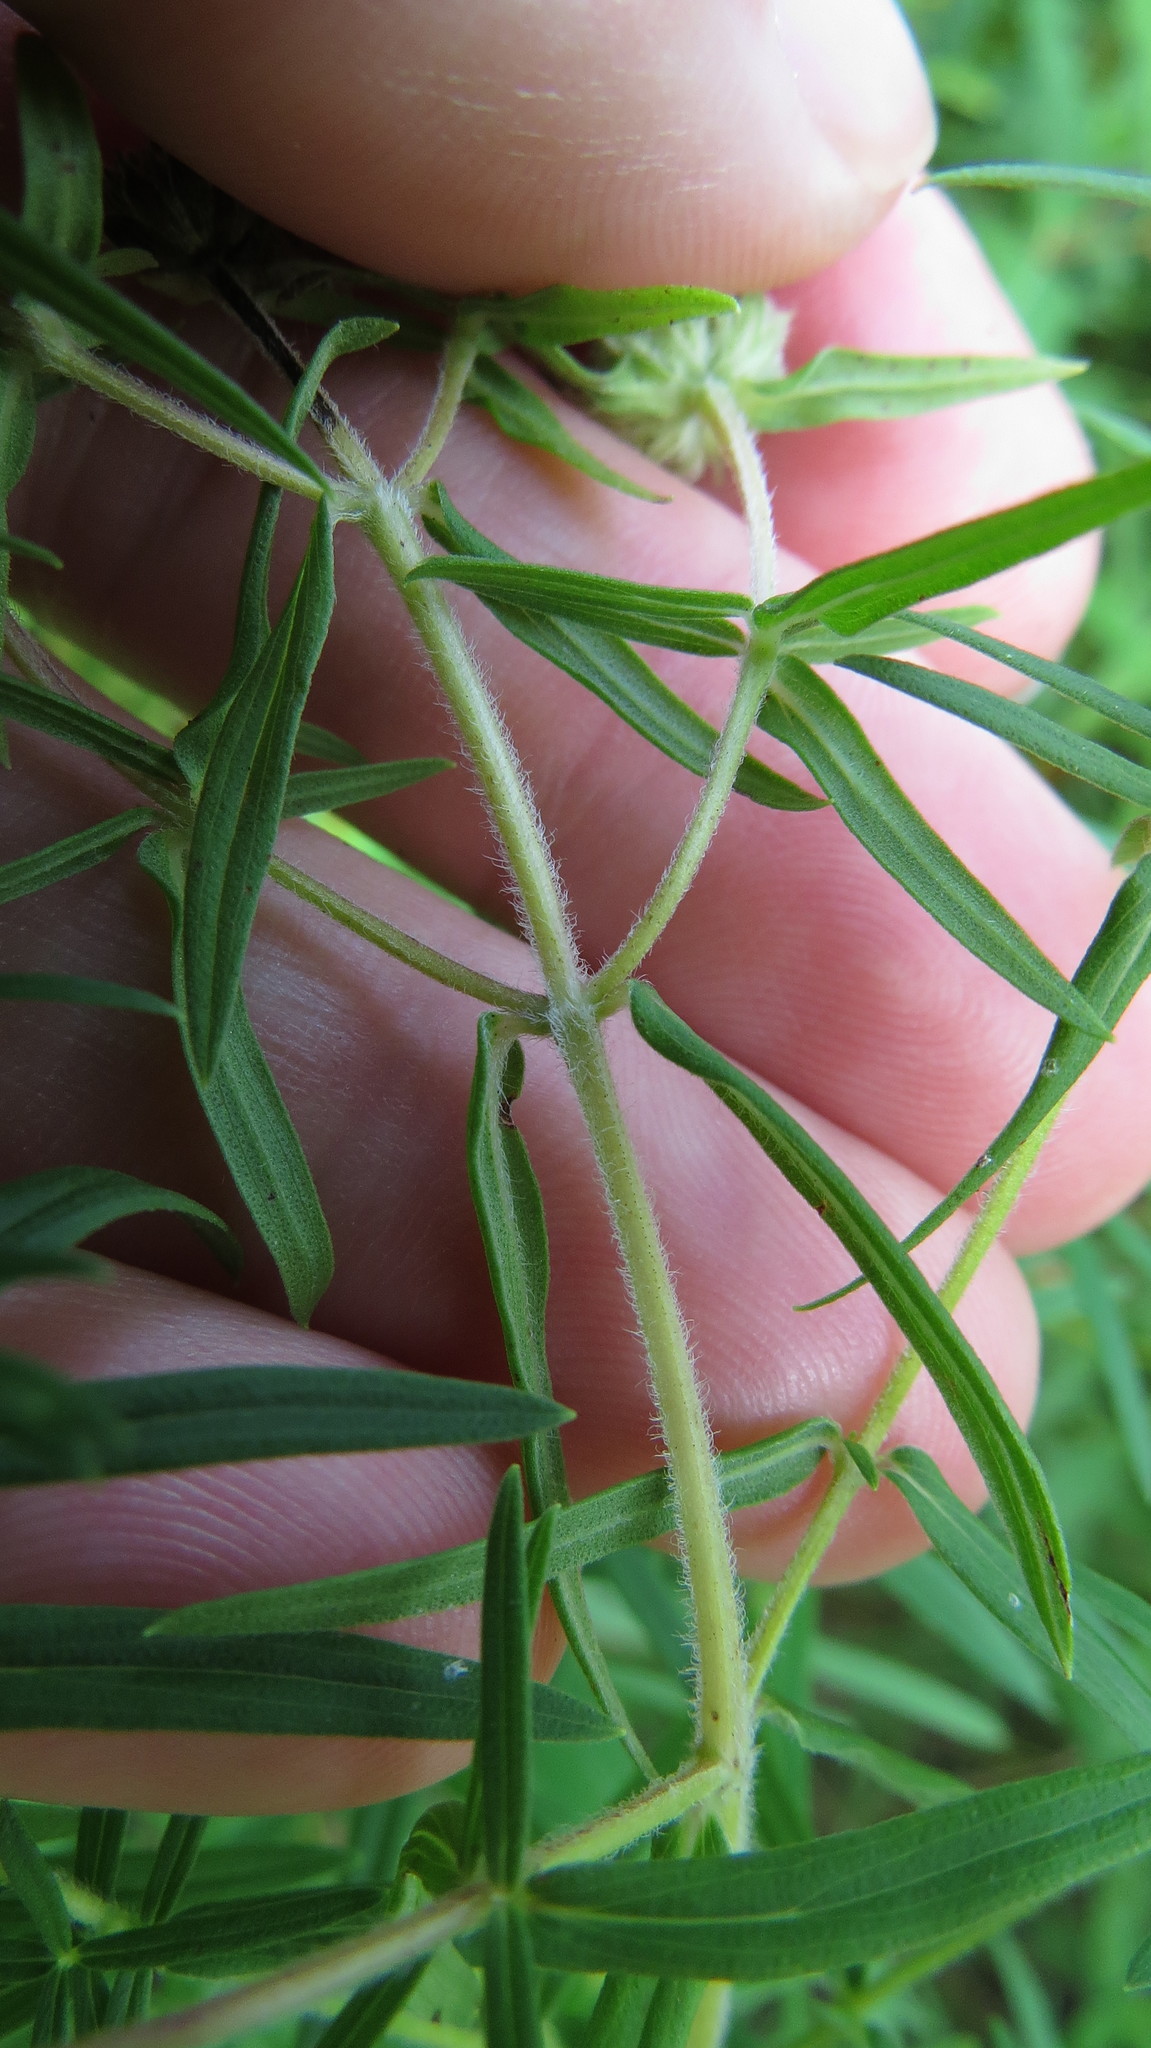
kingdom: Plantae
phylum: Tracheophyta
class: Magnoliopsida
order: Lamiales
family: Lamiaceae
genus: Pycnanthemum
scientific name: Pycnanthemum virginianum
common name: Virginia mountain-mint
